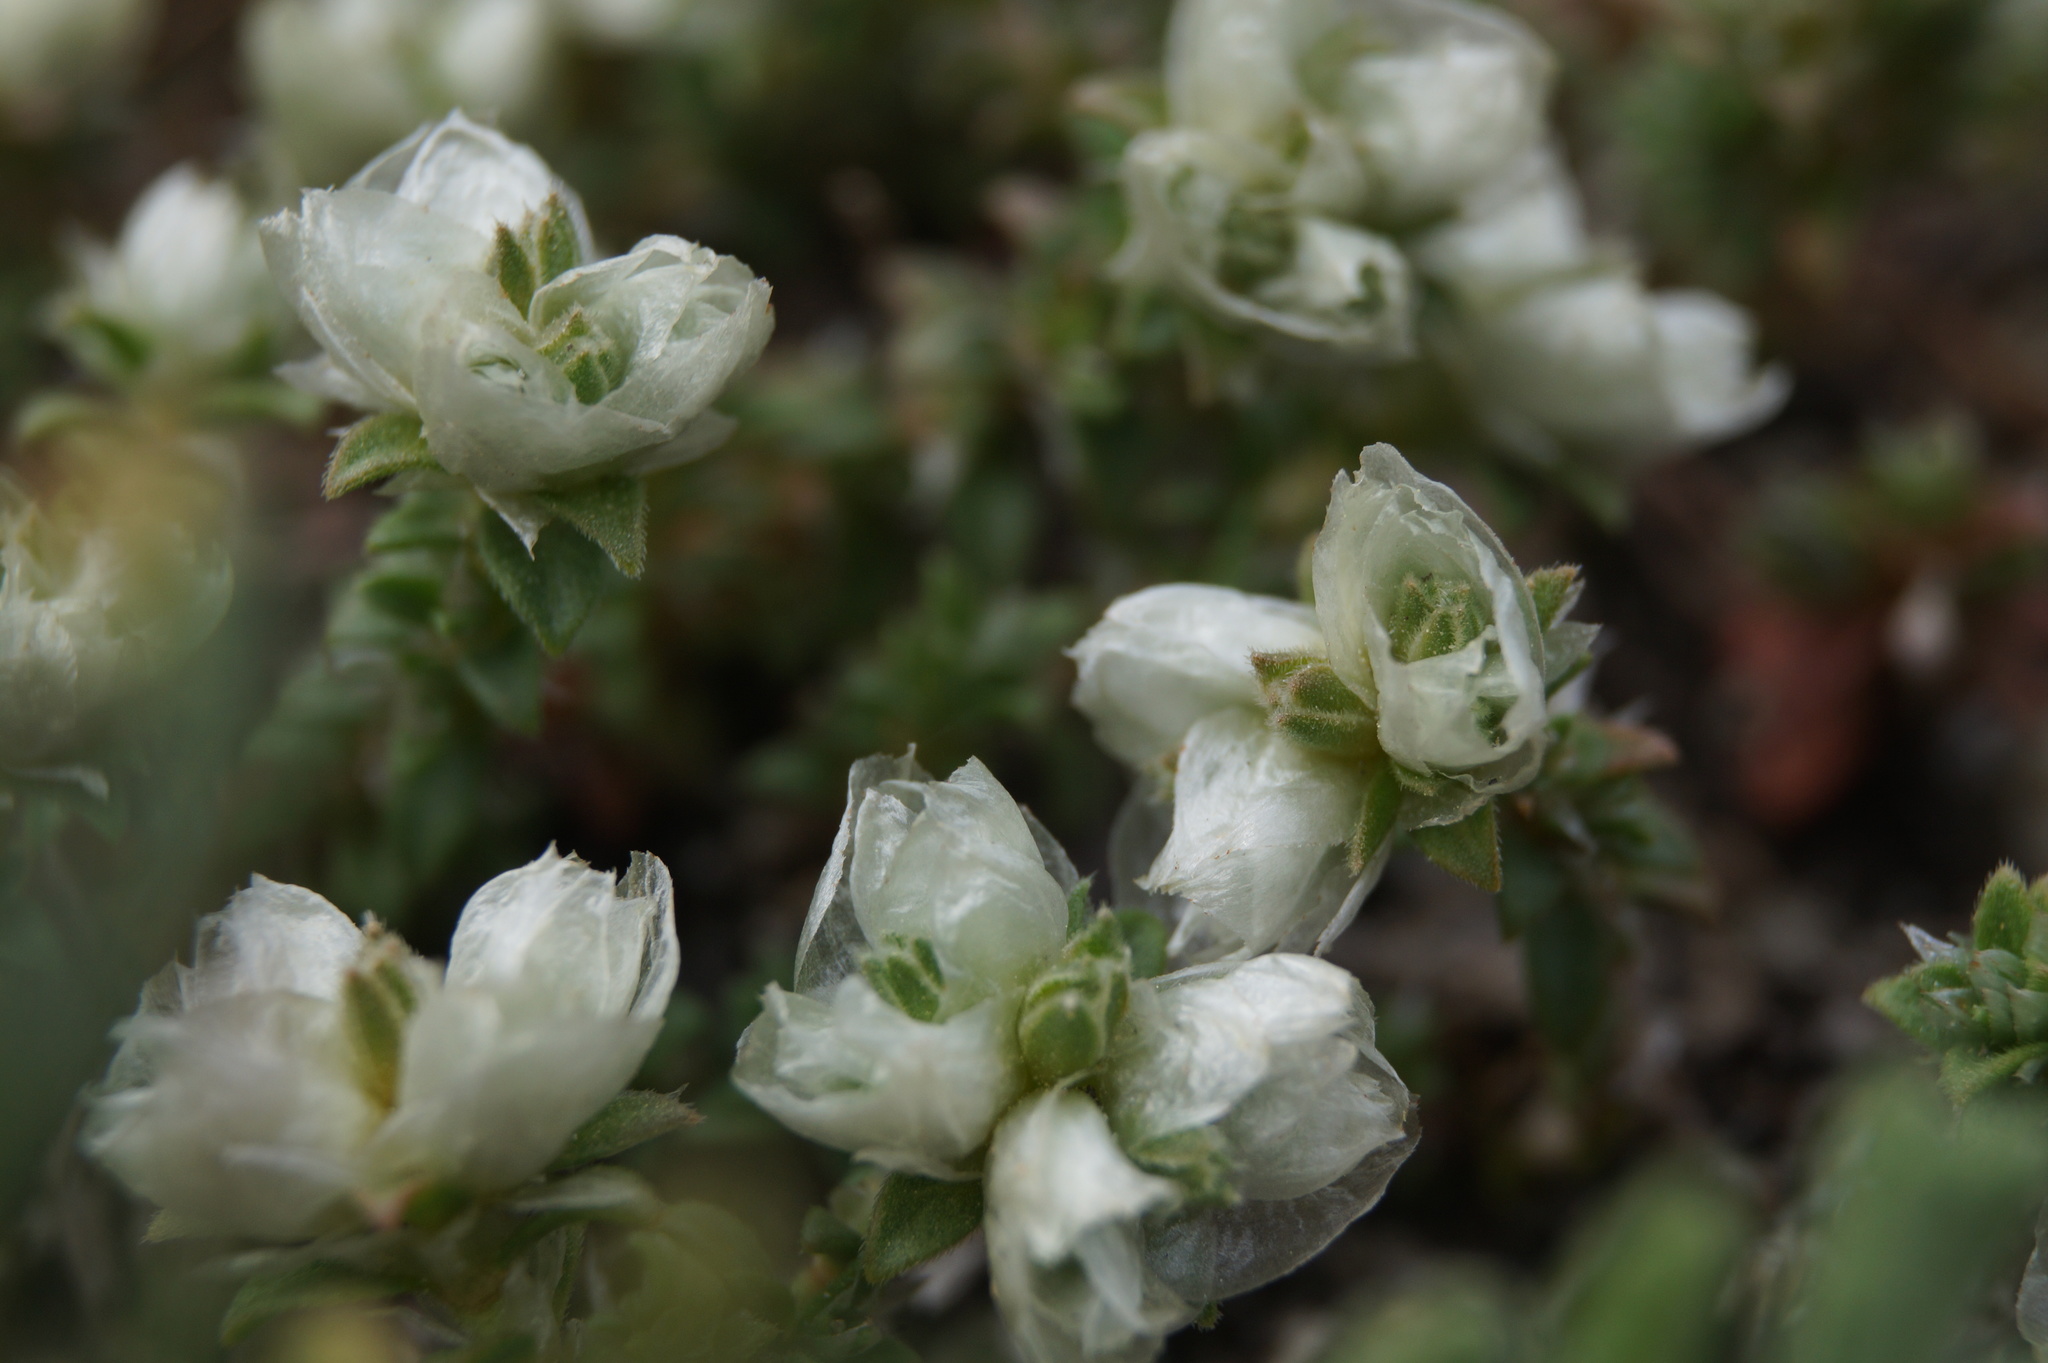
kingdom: Plantae
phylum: Tracheophyta
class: Magnoliopsida
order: Caryophyllales
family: Caryophyllaceae
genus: Paronychia
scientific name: Paronychia cephalotes
